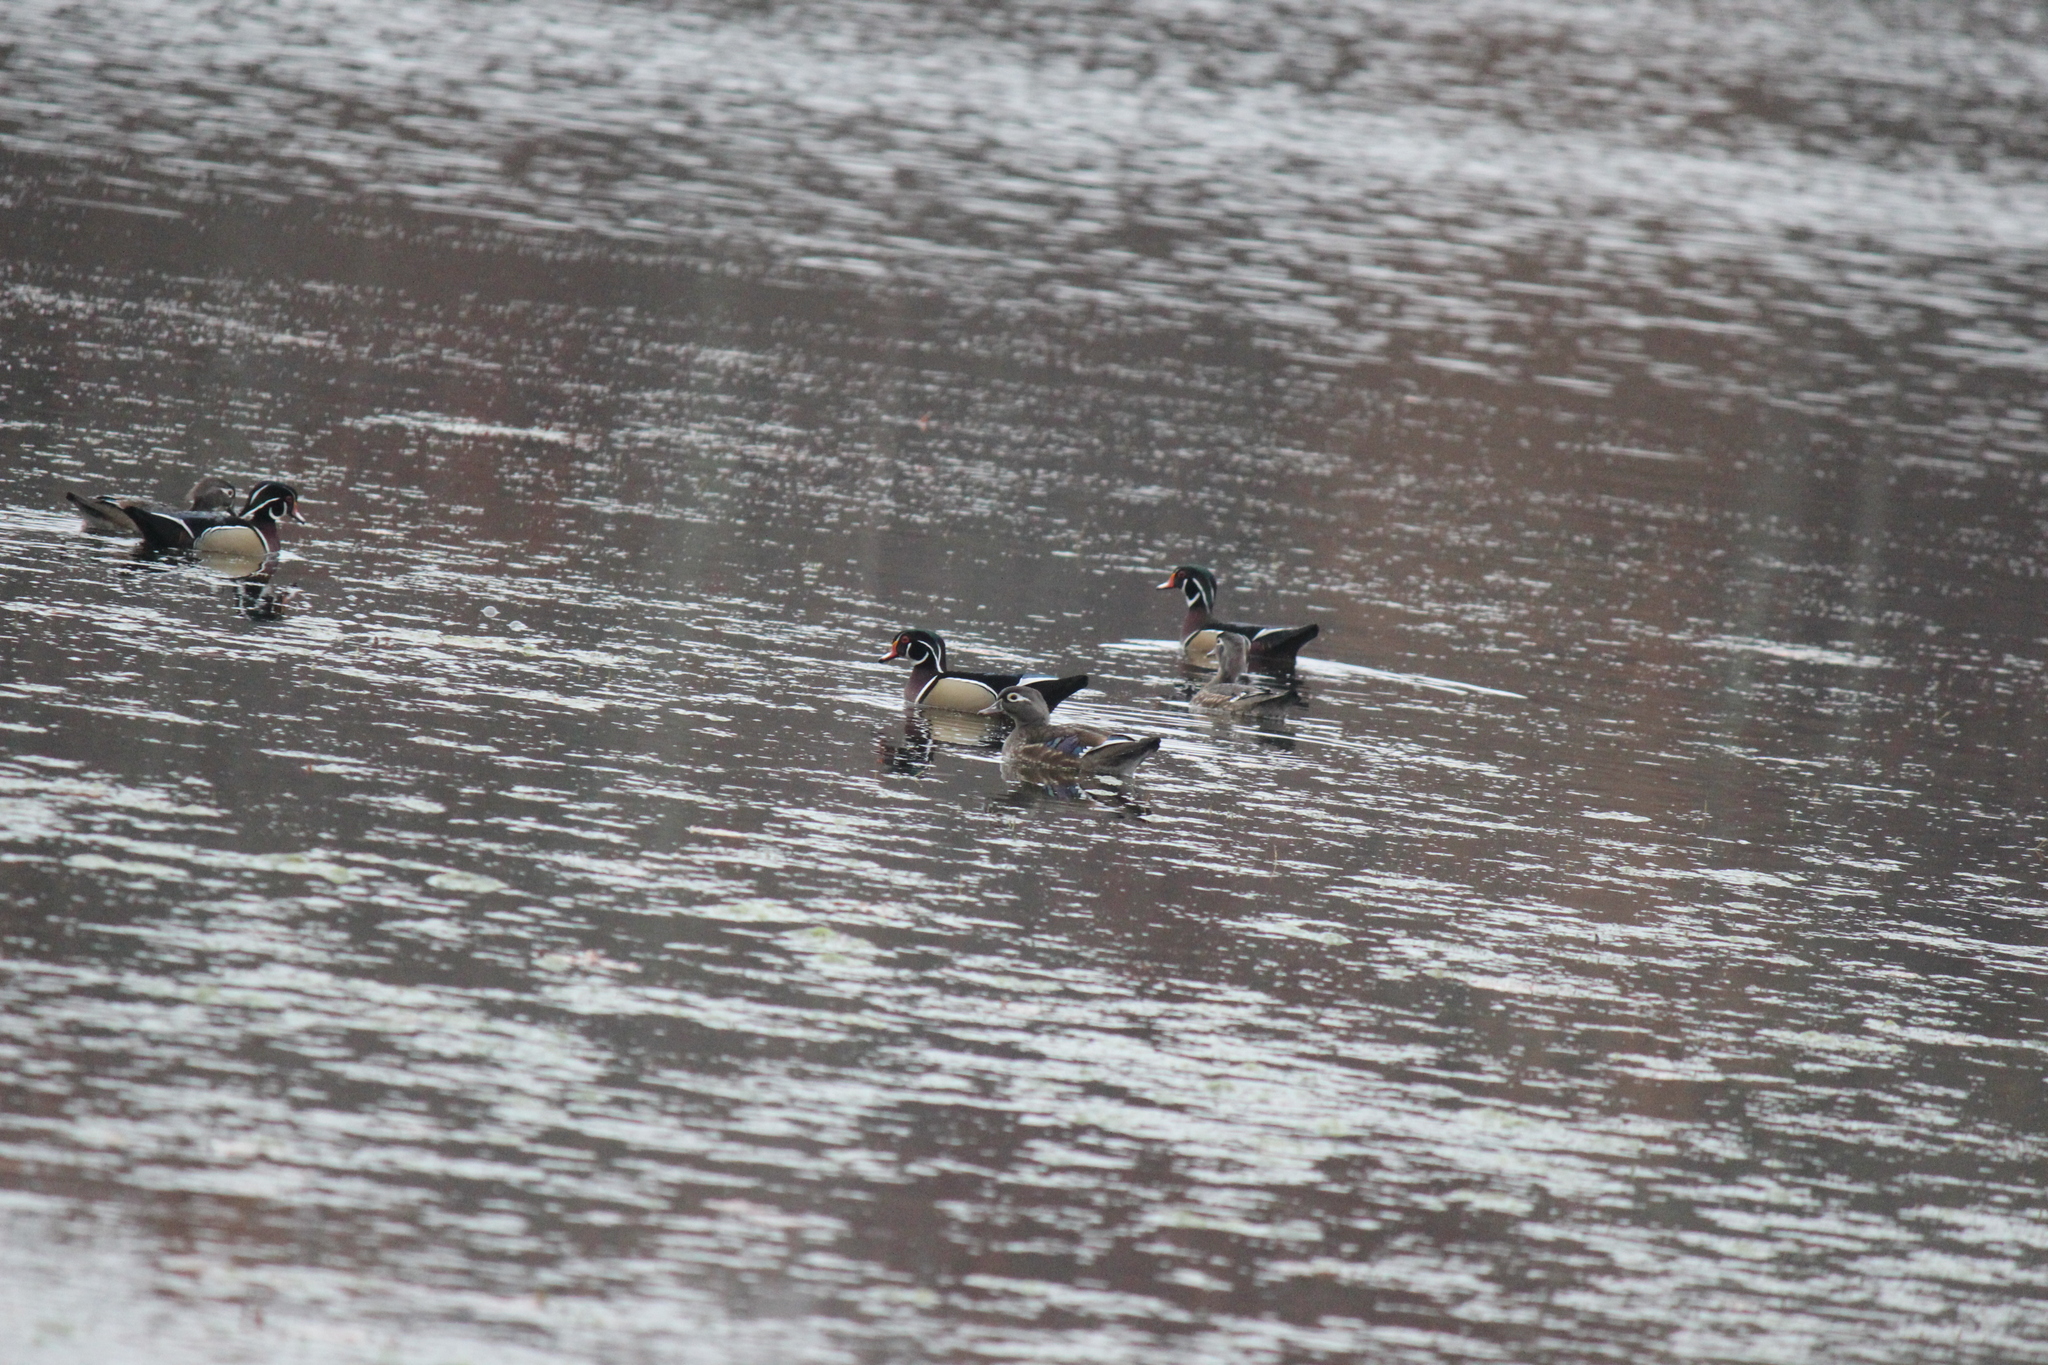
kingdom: Animalia
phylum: Chordata
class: Aves
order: Anseriformes
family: Anatidae
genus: Aix
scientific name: Aix sponsa
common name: Wood duck
